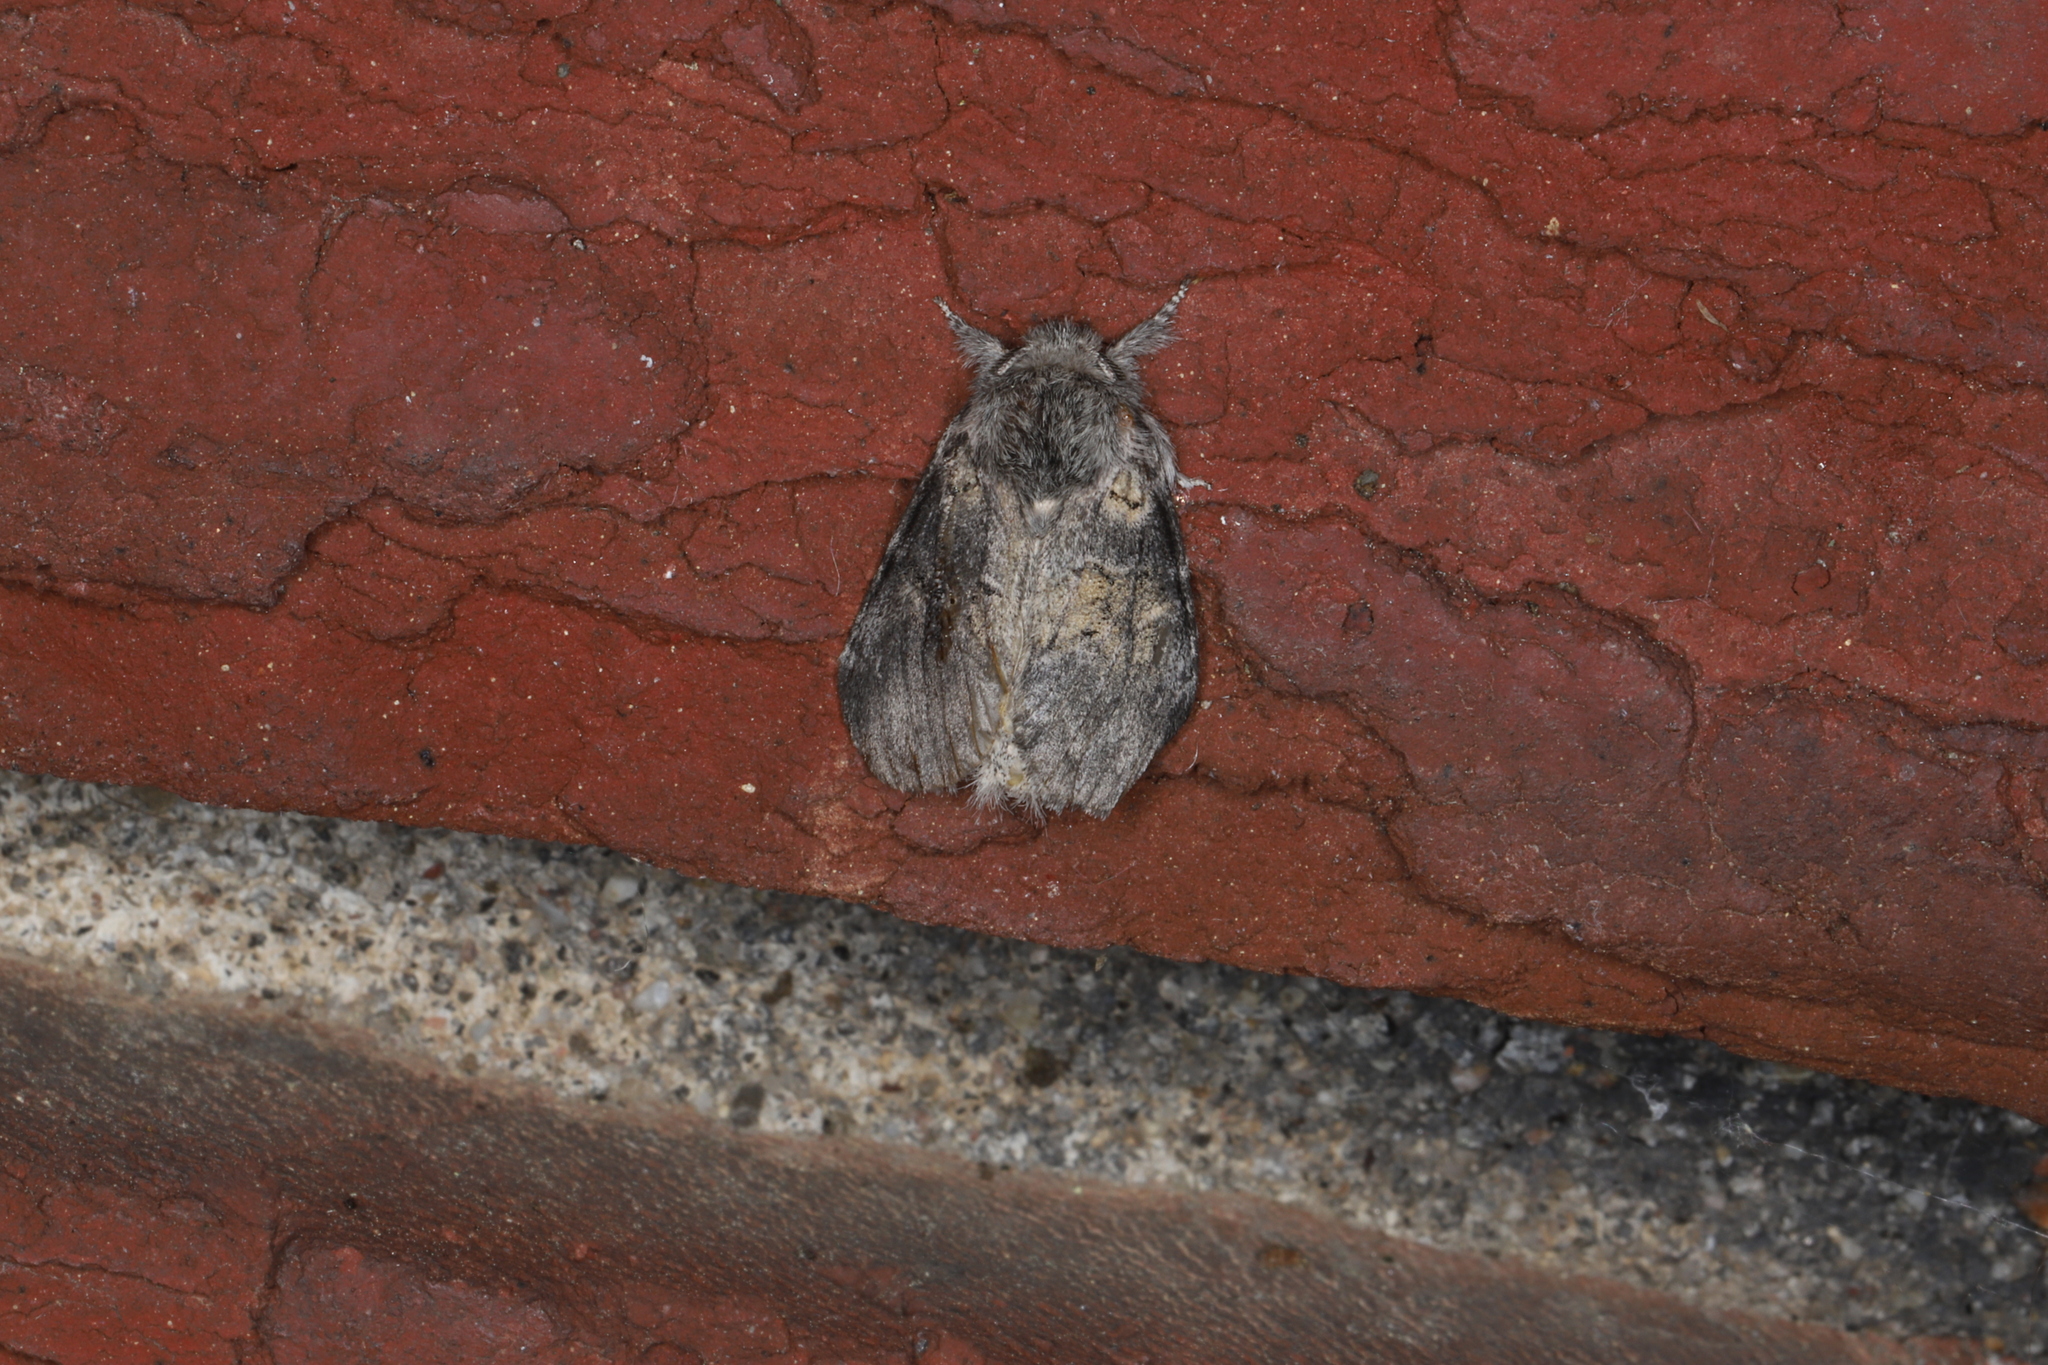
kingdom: Animalia
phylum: Arthropoda
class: Insecta
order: Lepidoptera
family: Notodontidae
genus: Gluphisia
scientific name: Gluphisia septentrionis
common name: Common gluphisia
